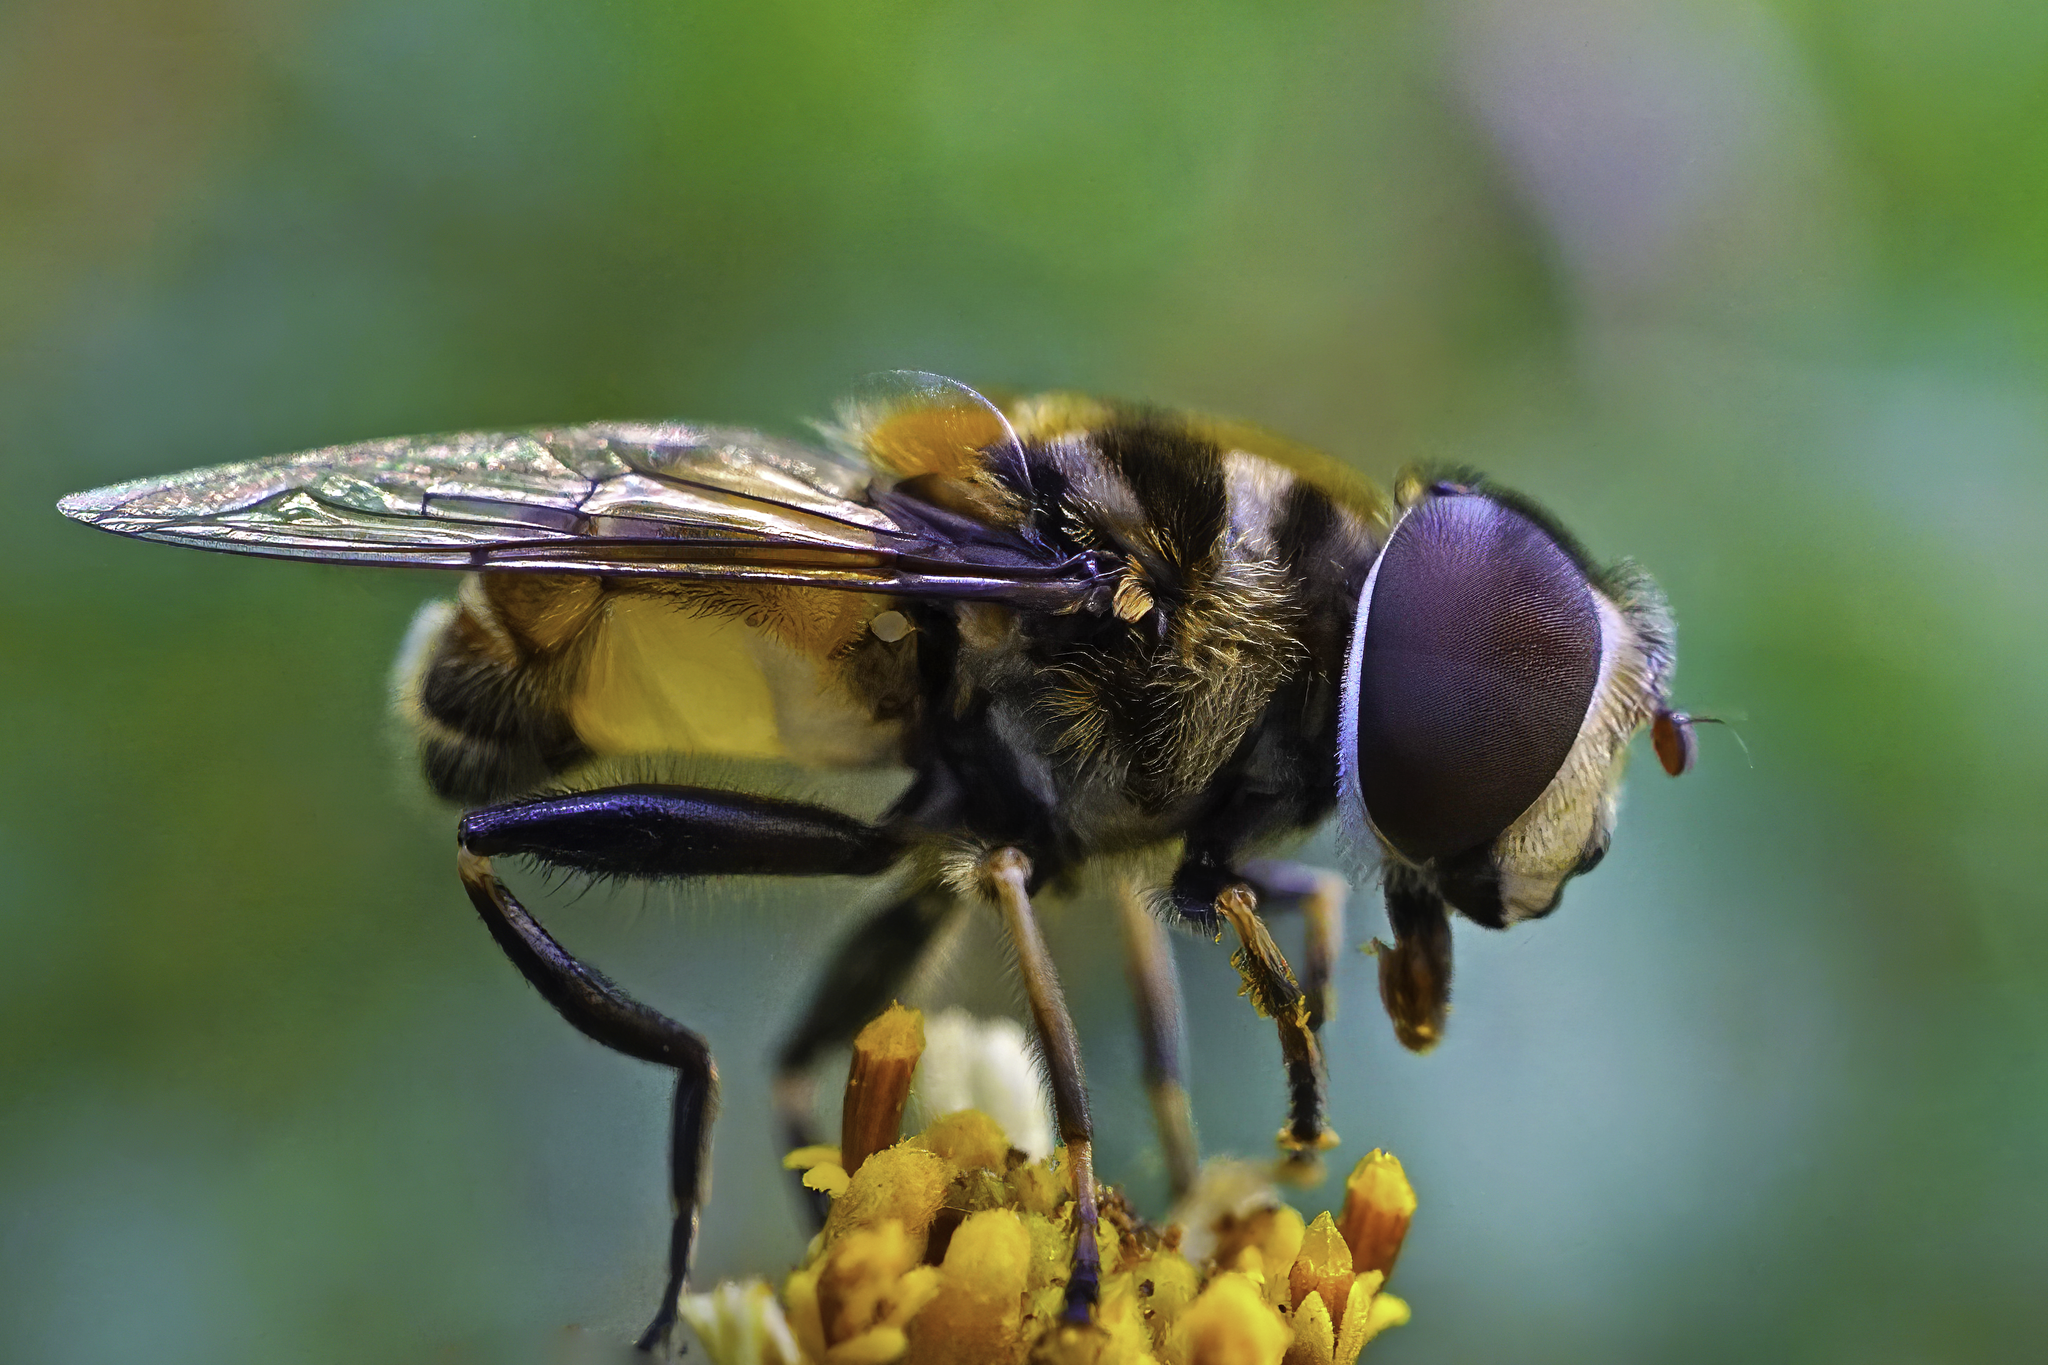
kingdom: Animalia
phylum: Arthropoda
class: Insecta
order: Diptera
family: Syrphidae
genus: Palpada
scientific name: Palpada agrorum
